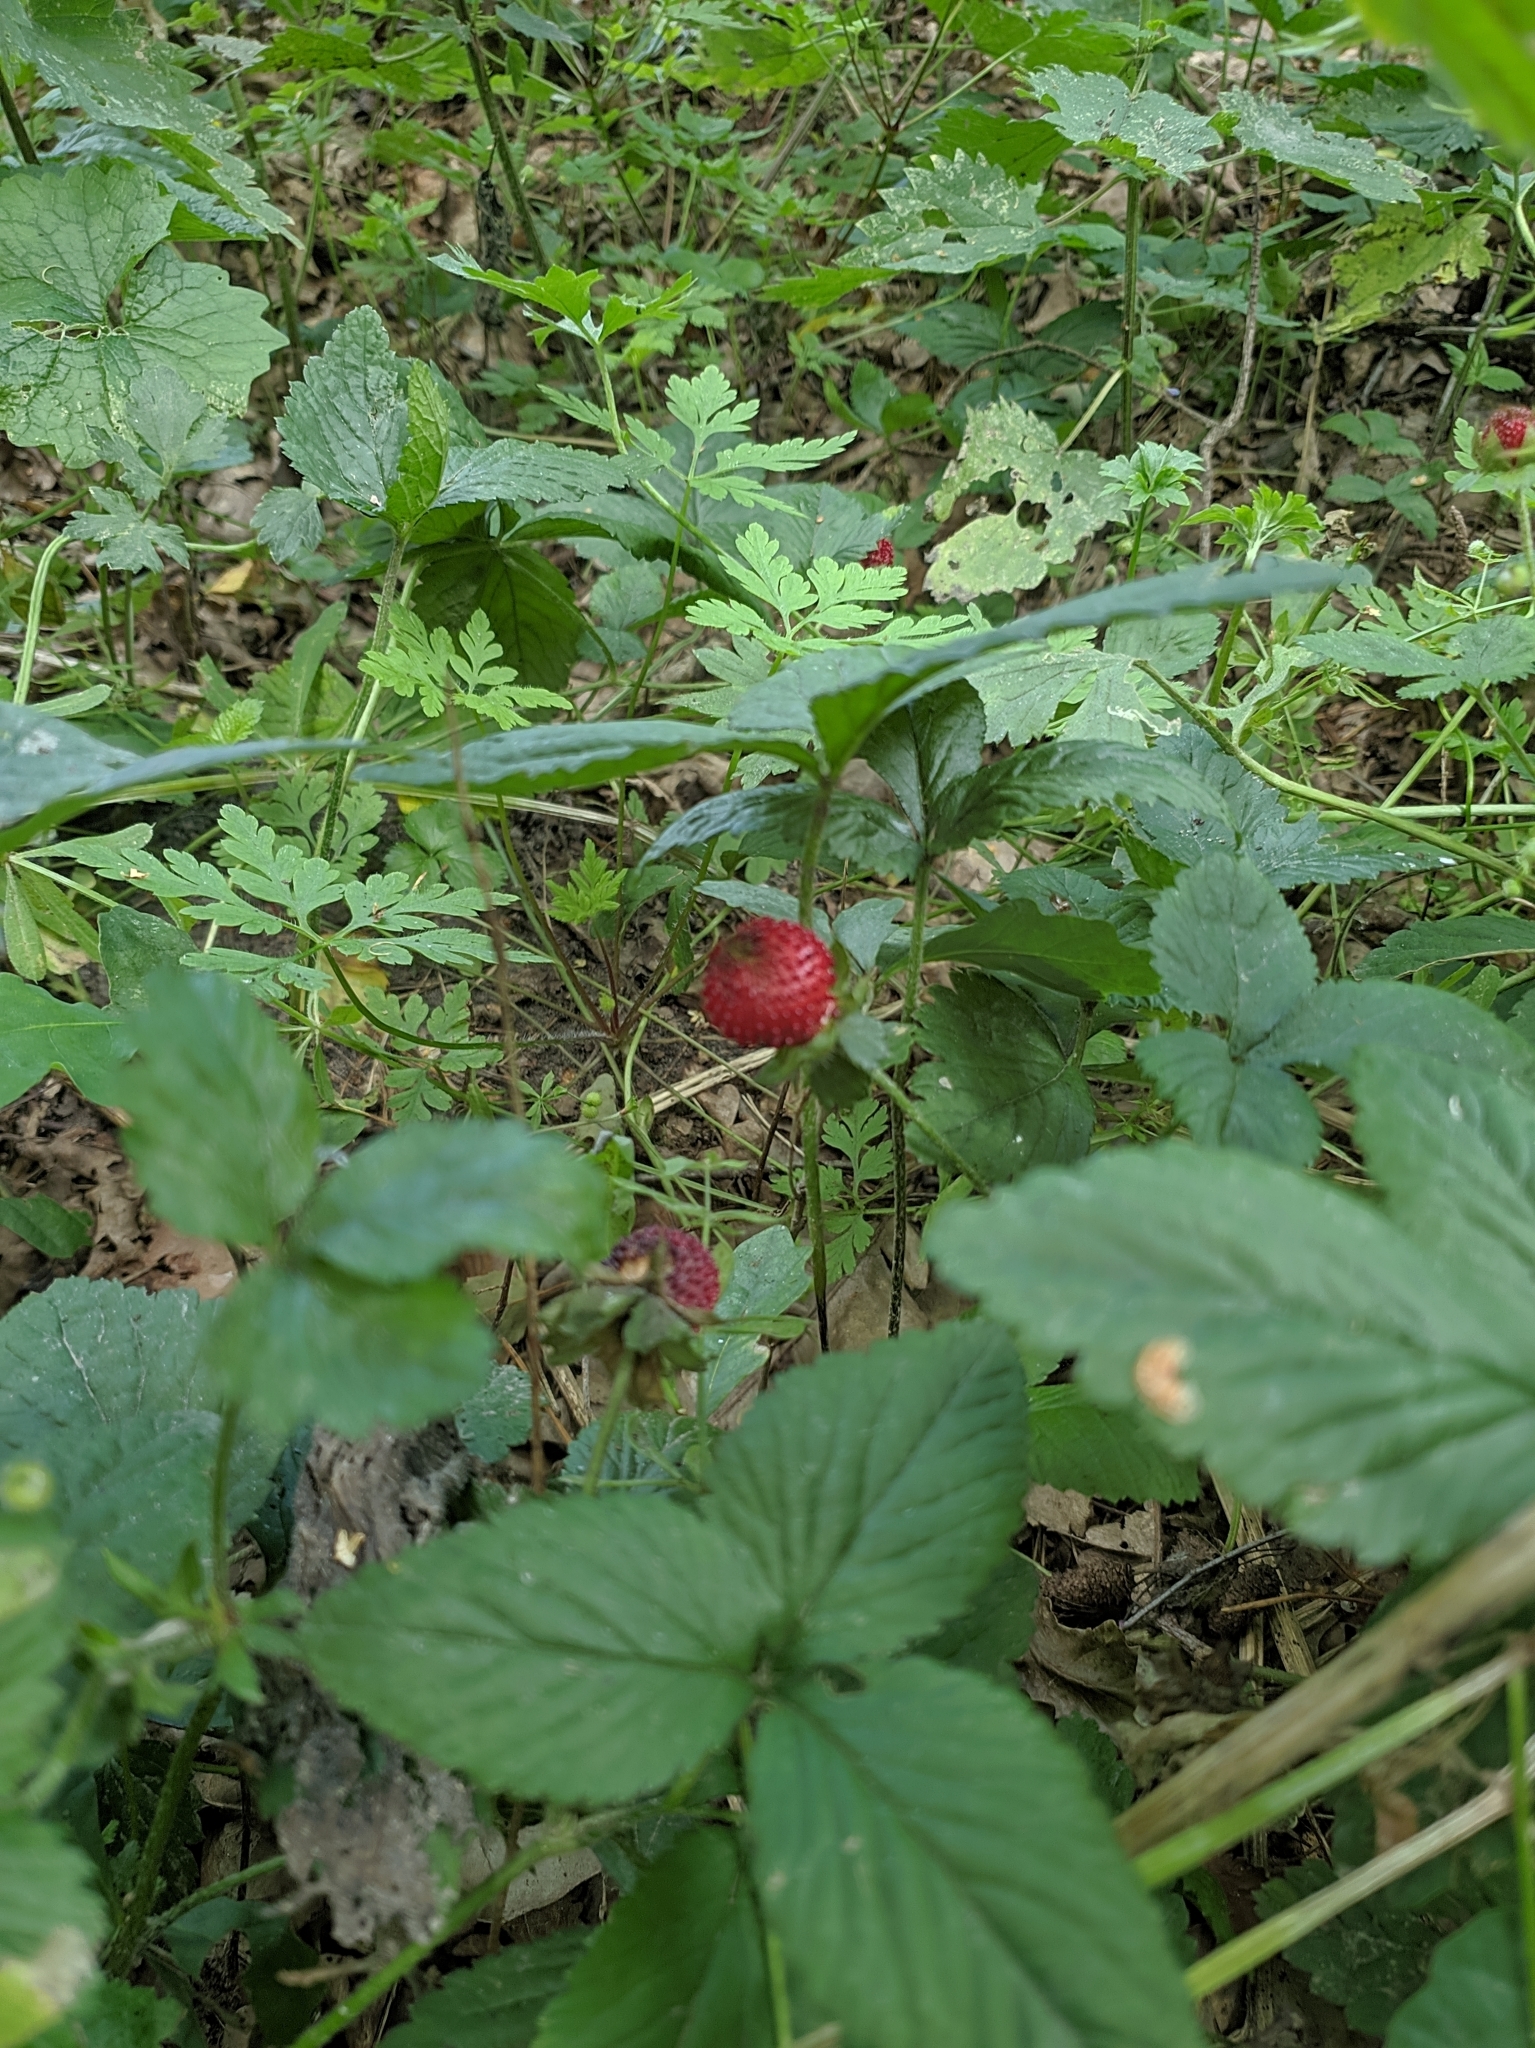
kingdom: Plantae
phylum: Tracheophyta
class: Magnoliopsida
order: Rosales
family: Rosaceae
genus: Potentilla
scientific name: Potentilla indica
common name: Yellow-flowered strawberry
